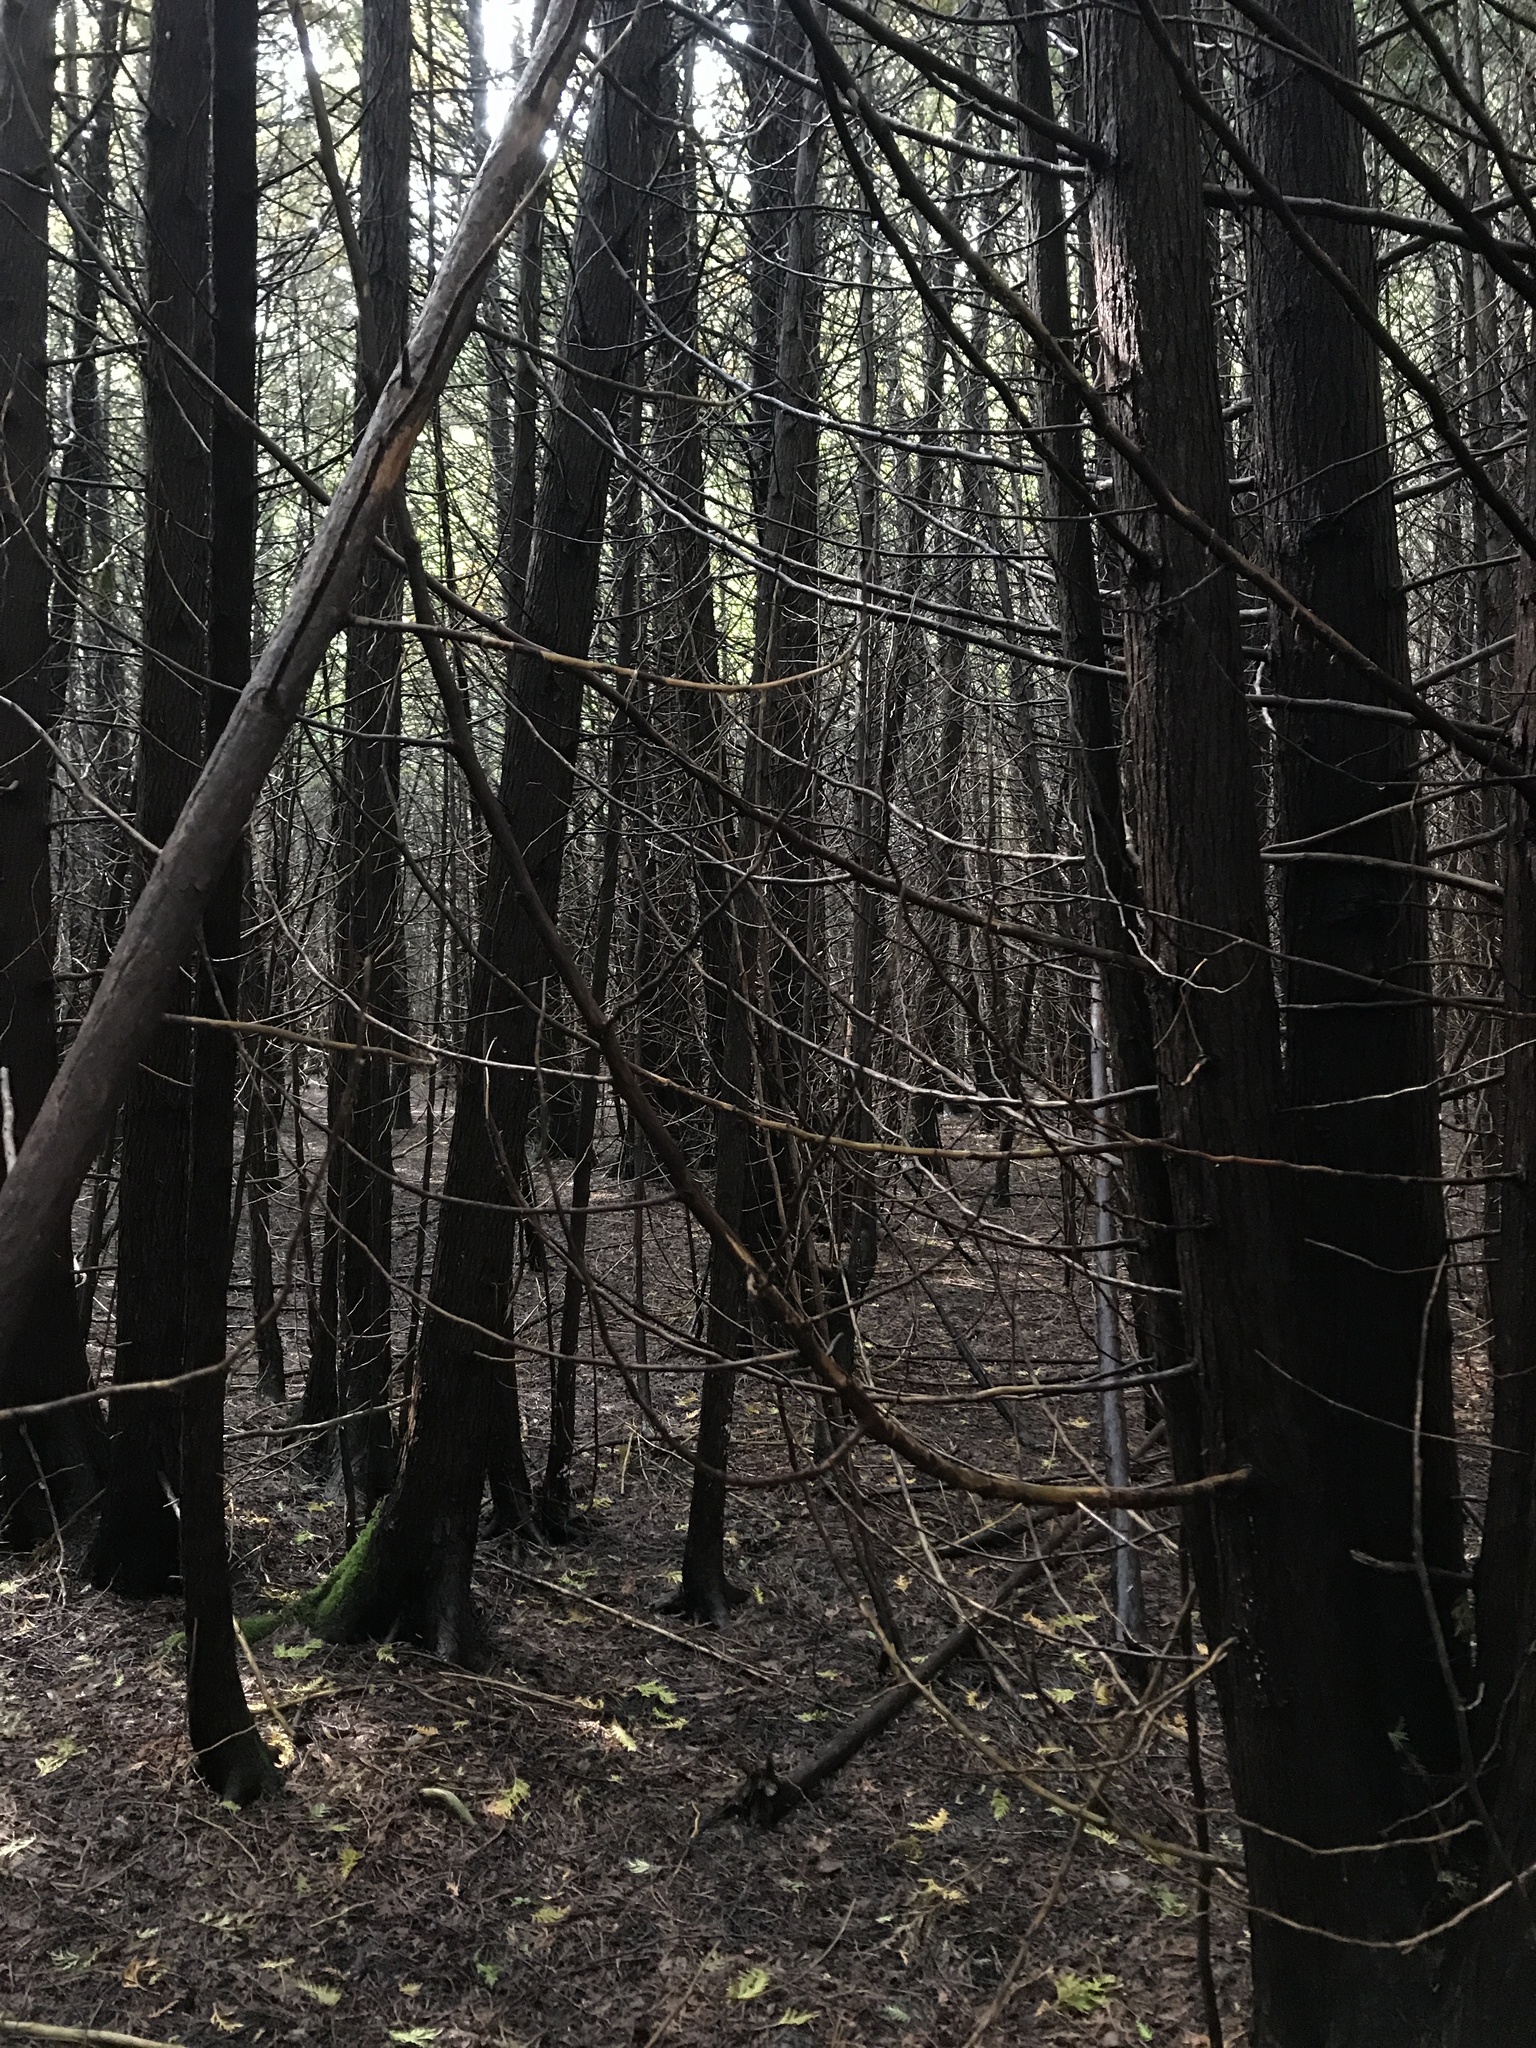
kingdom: Plantae
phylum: Tracheophyta
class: Pinopsida
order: Pinales
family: Cupressaceae
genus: Thuja
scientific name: Thuja occidentalis
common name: Northern white-cedar
